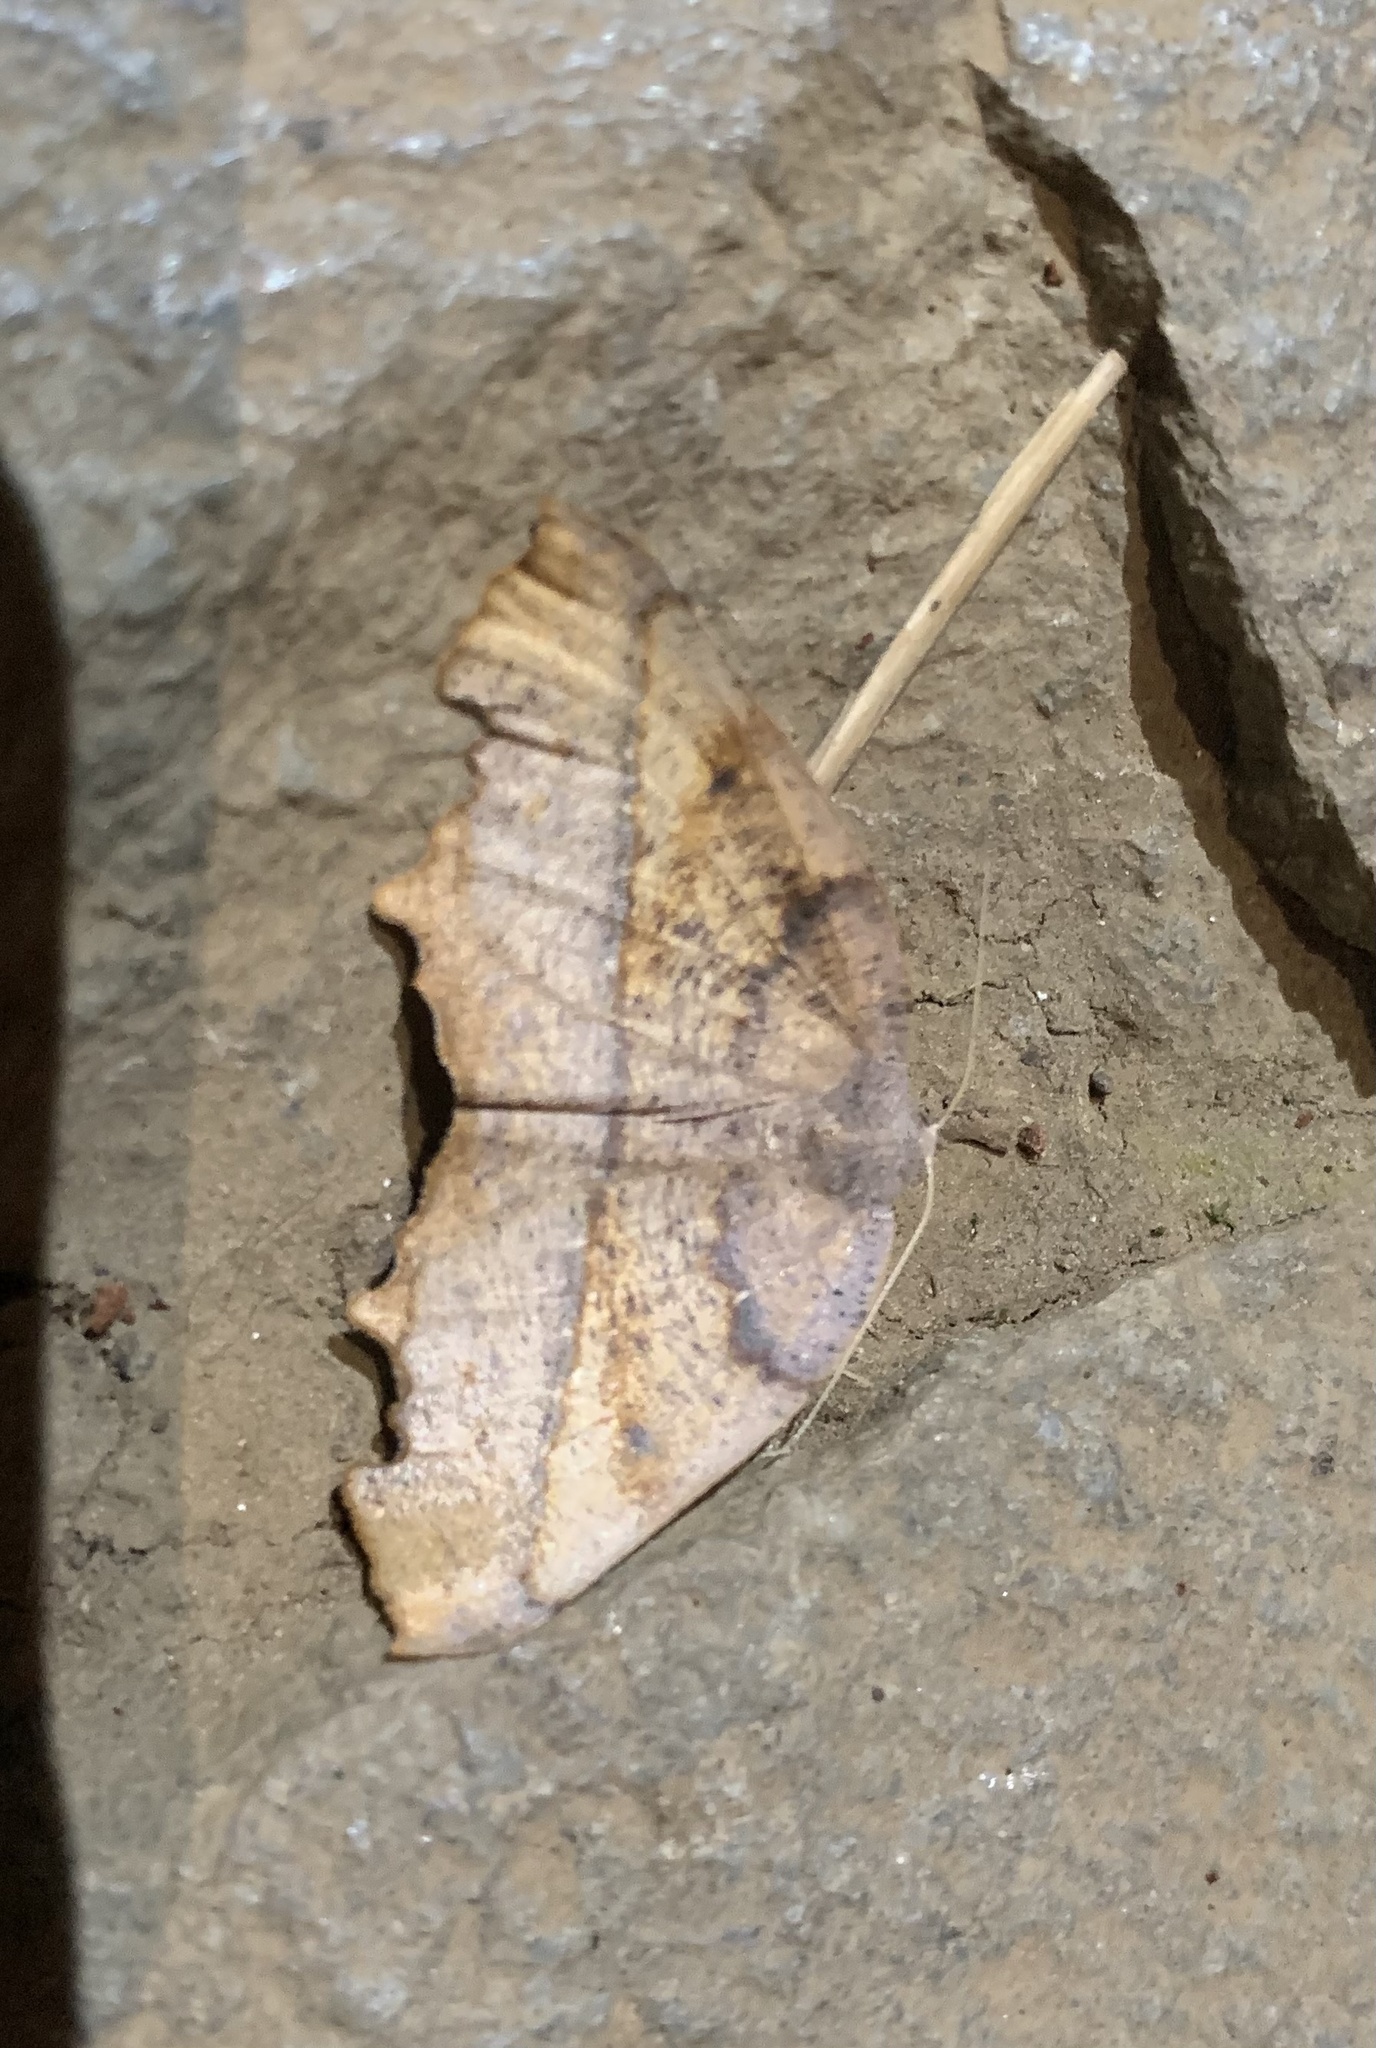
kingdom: Animalia
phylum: Arthropoda
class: Insecta
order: Lepidoptera
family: Geometridae
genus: Syncirsodes
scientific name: Syncirsodes primata
